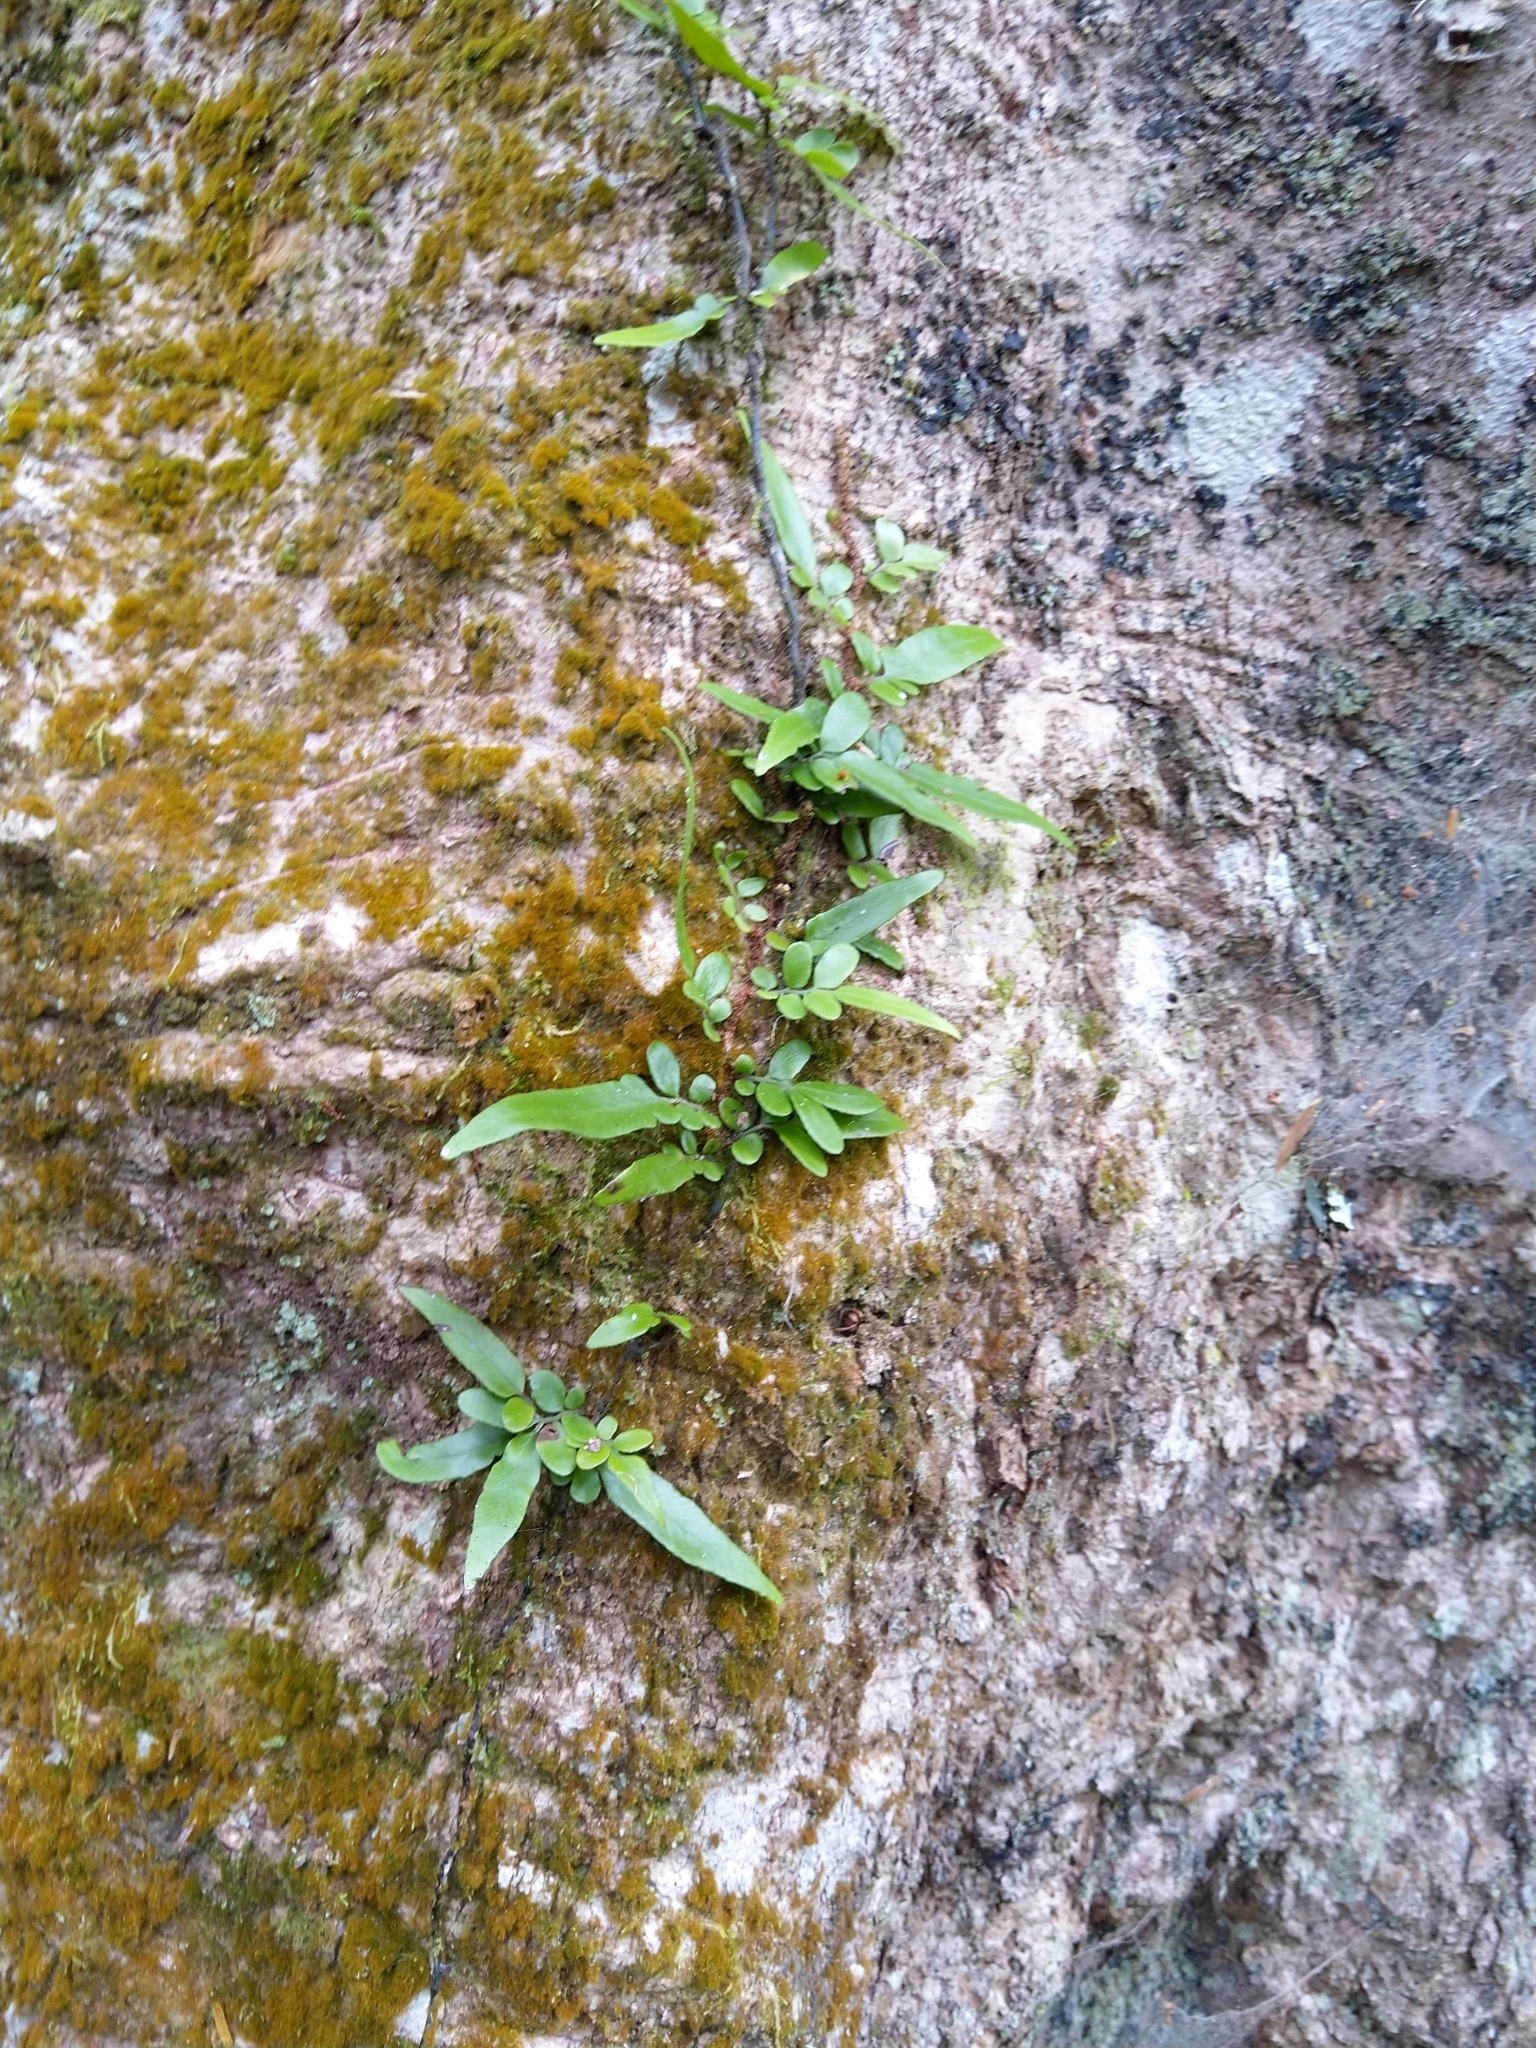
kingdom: Plantae
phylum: Tracheophyta
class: Polypodiopsida
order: Polypodiales
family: Tectariaceae
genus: Arthropteris
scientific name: Arthropteris tenella
